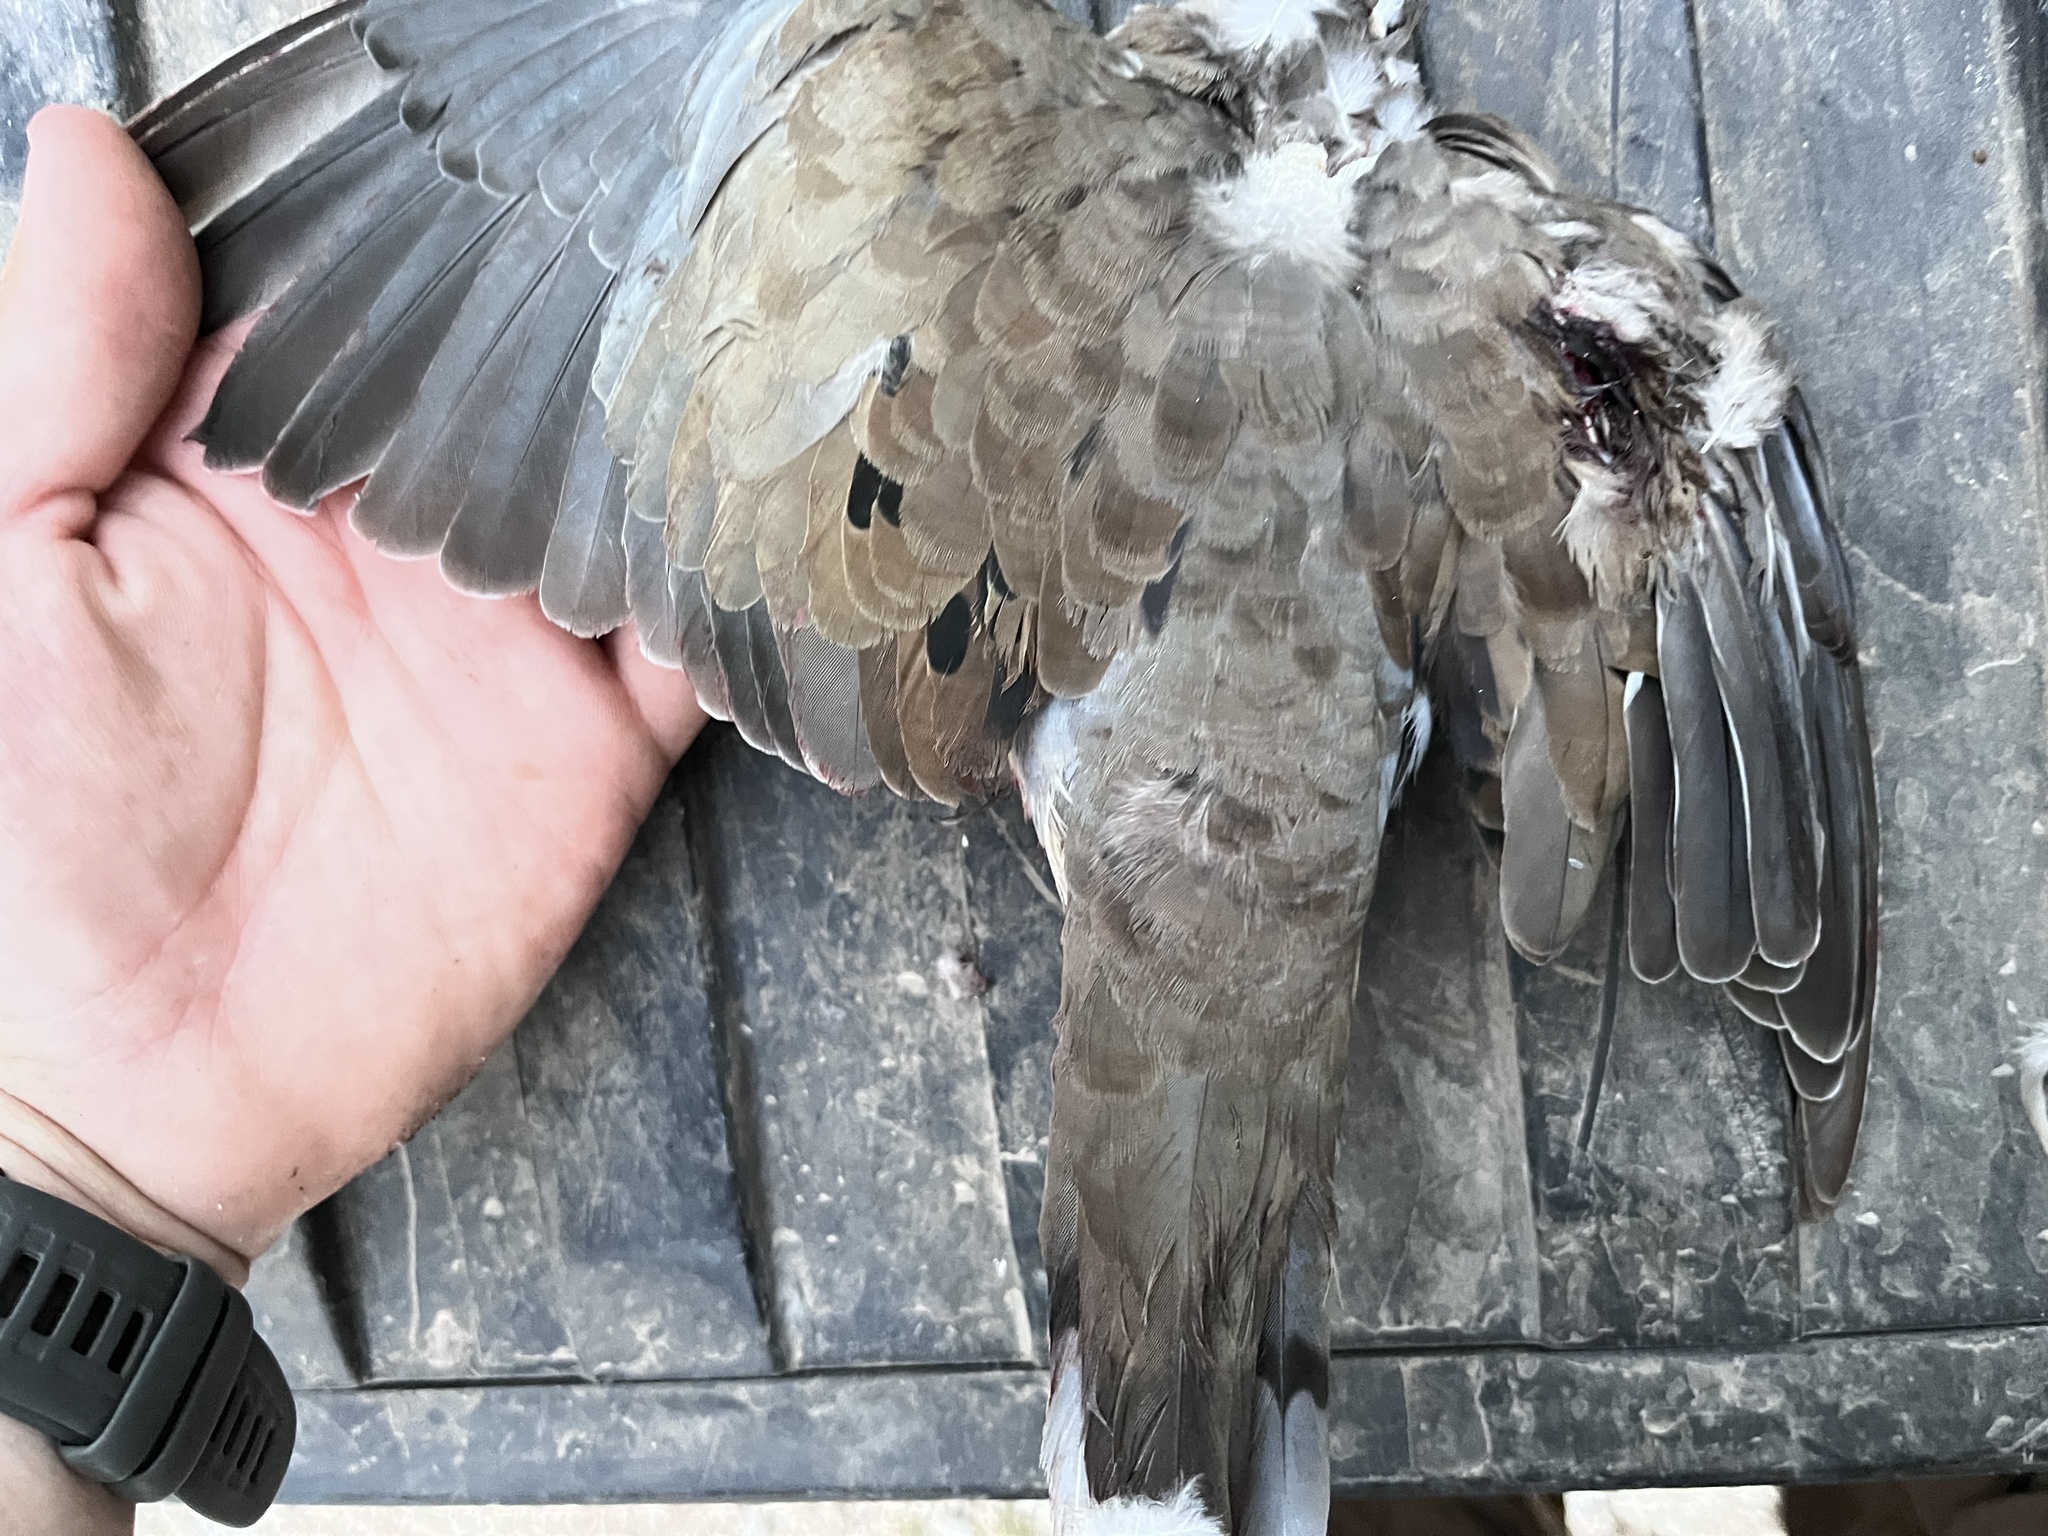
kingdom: Animalia
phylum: Chordata
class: Aves
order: Columbiformes
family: Columbidae
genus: Zenaida
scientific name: Zenaida macroura
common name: Mourning dove
